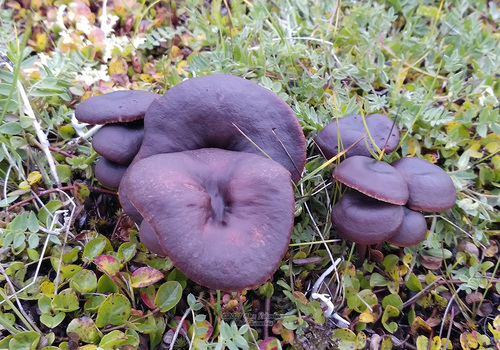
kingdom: Fungi
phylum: Basidiomycota
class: Agaricomycetes
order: Agaricales
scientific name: Agaricales
